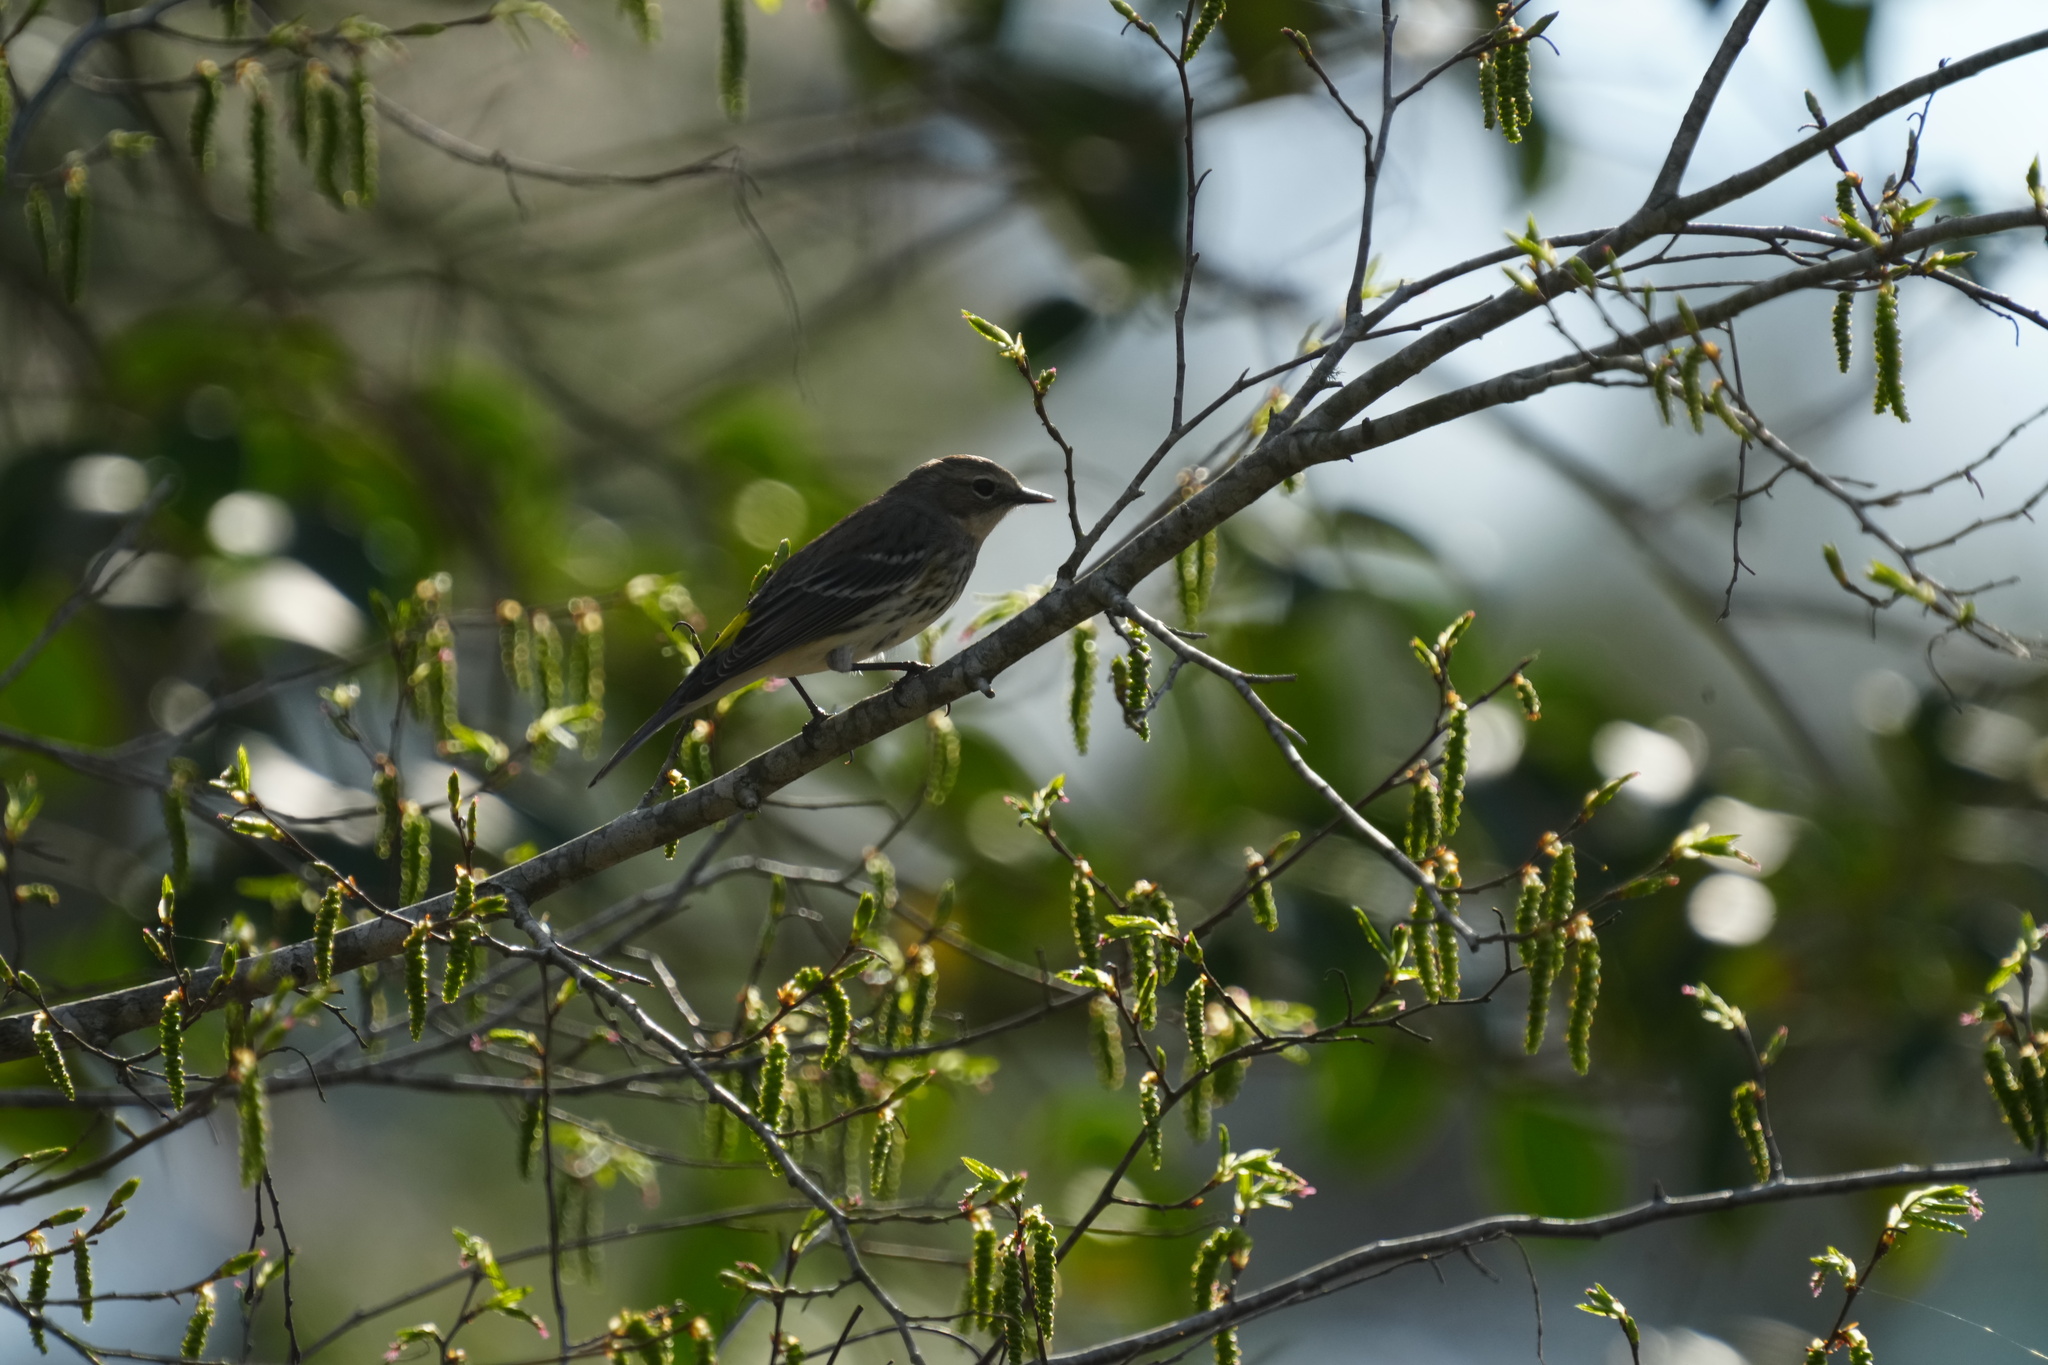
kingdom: Animalia
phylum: Chordata
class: Aves
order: Passeriformes
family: Parulidae
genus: Setophaga
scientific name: Setophaga coronata
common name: Myrtle warbler
